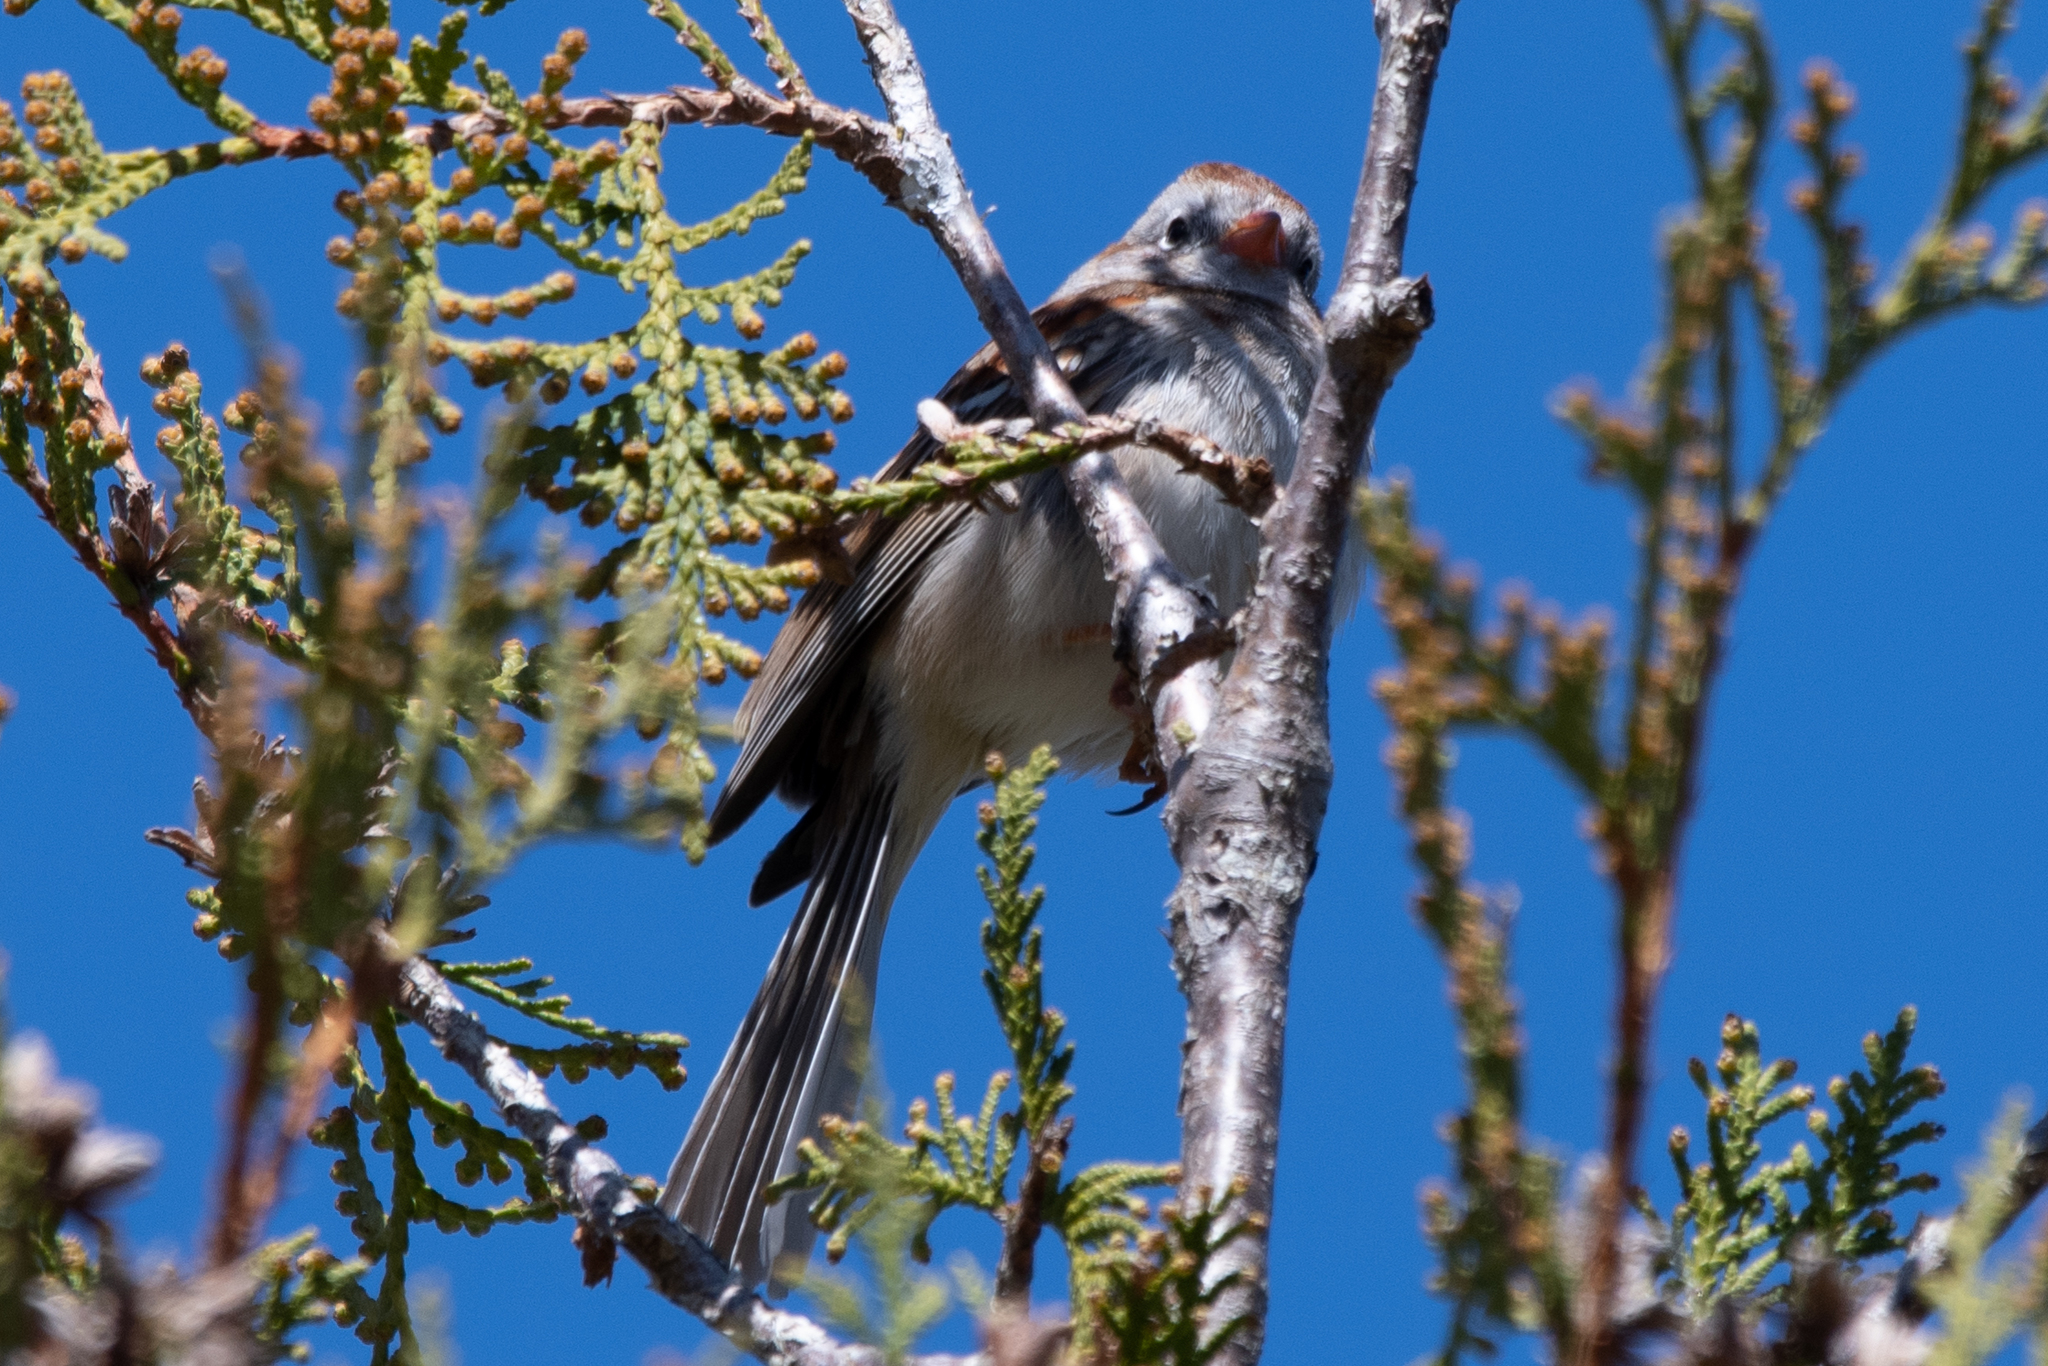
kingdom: Animalia
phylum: Chordata
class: Aves
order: Passeriformes
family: Passerellidae
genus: Spizella
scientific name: Spizella pusilla
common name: Field sparrow
